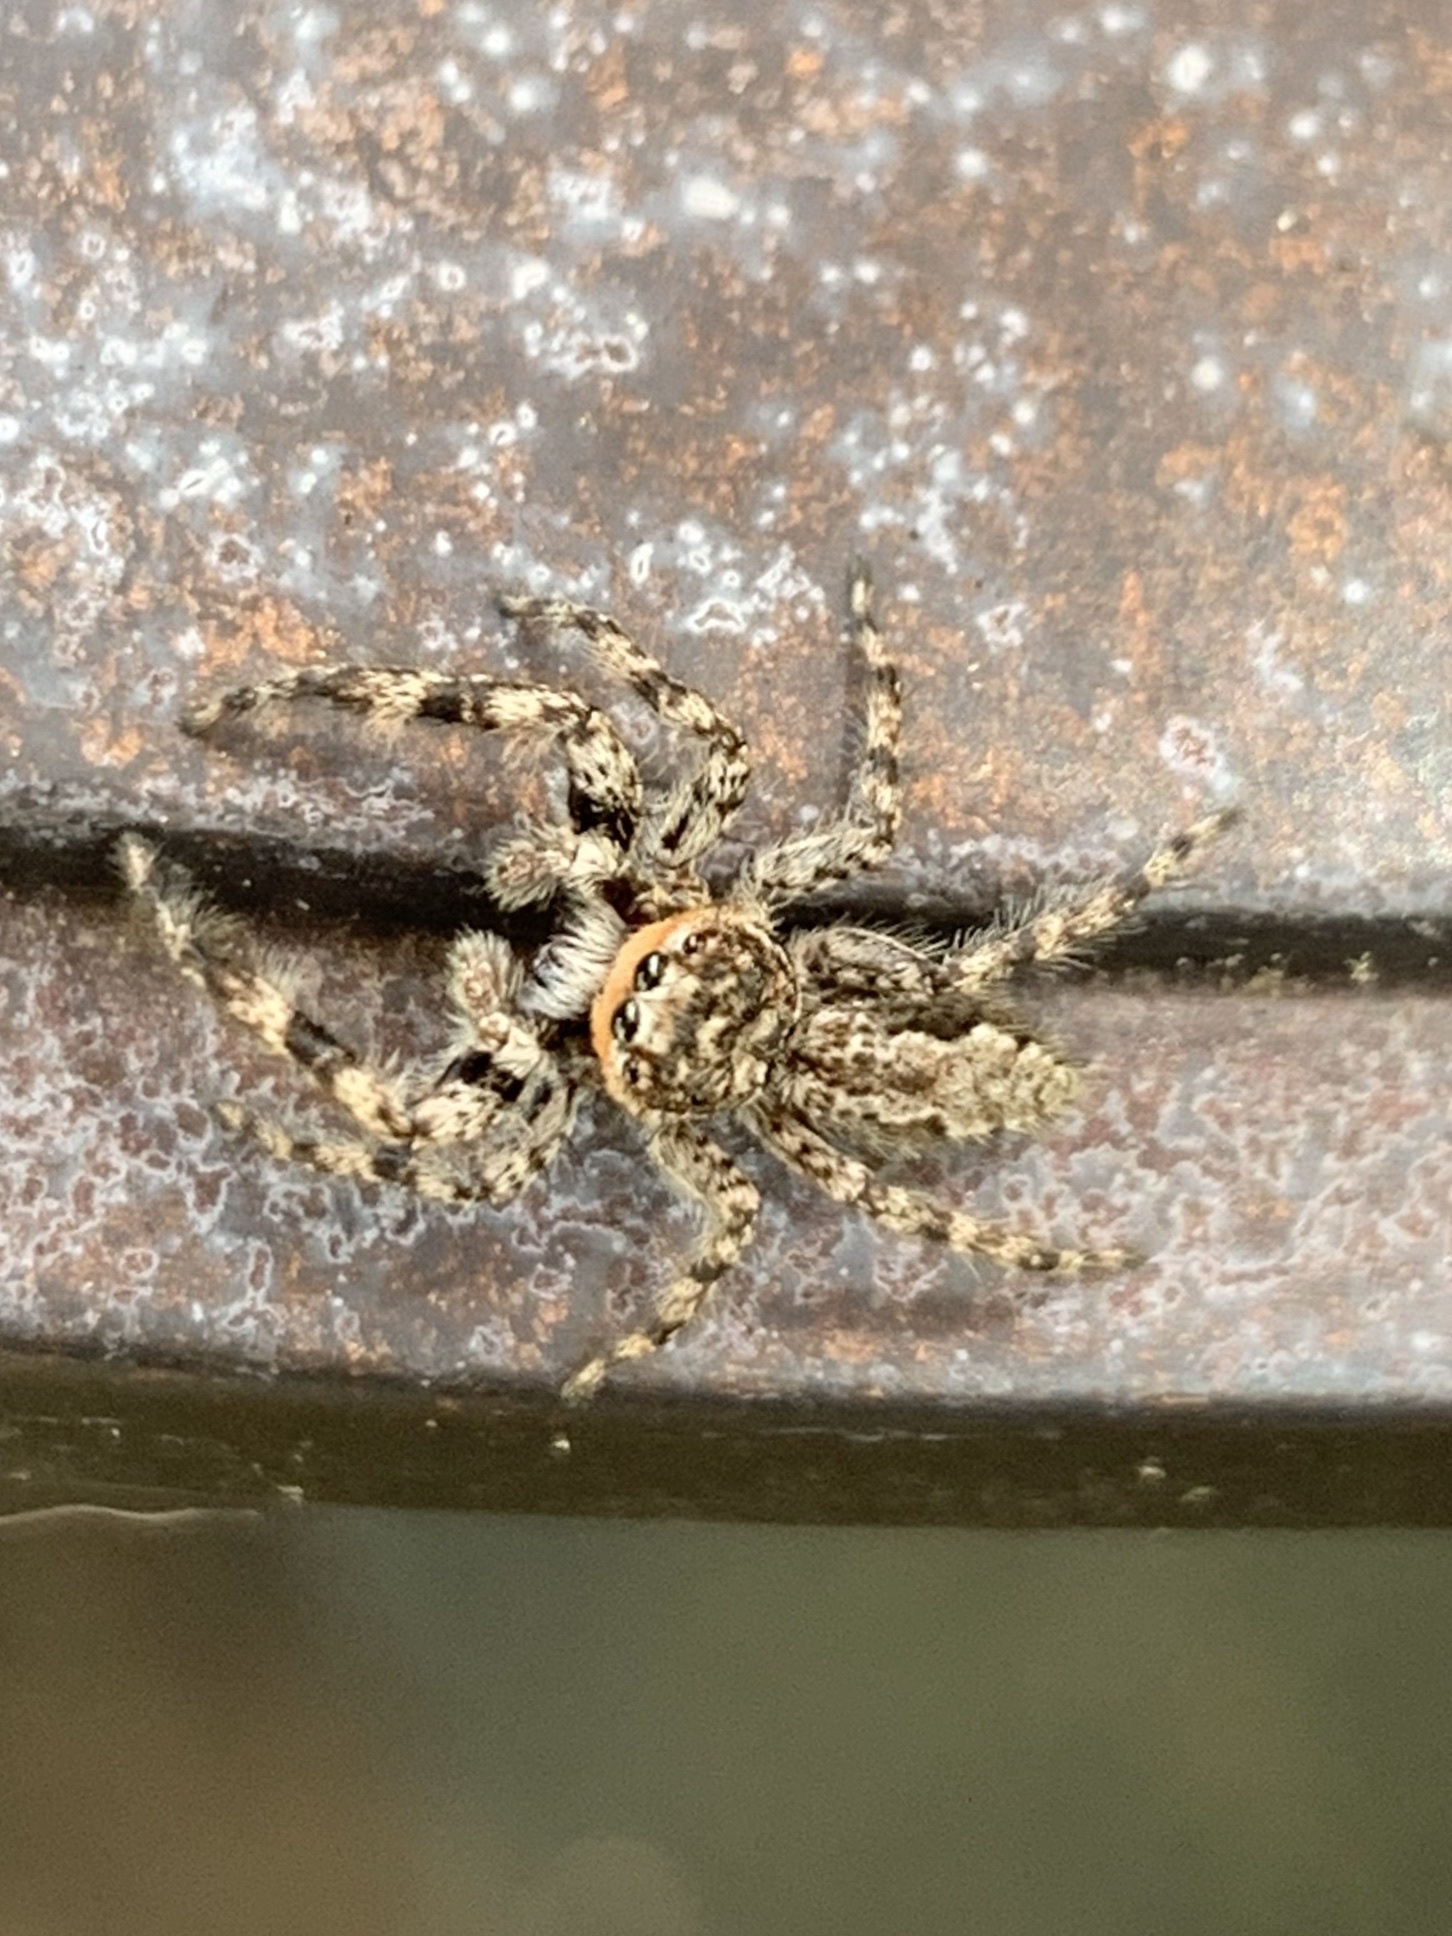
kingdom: Animalia
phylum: Arthropoda
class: Arachnida
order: Araneae
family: Salticidae
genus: Platycryptus
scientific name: Platycryptus undatus
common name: Tan jumping spider
